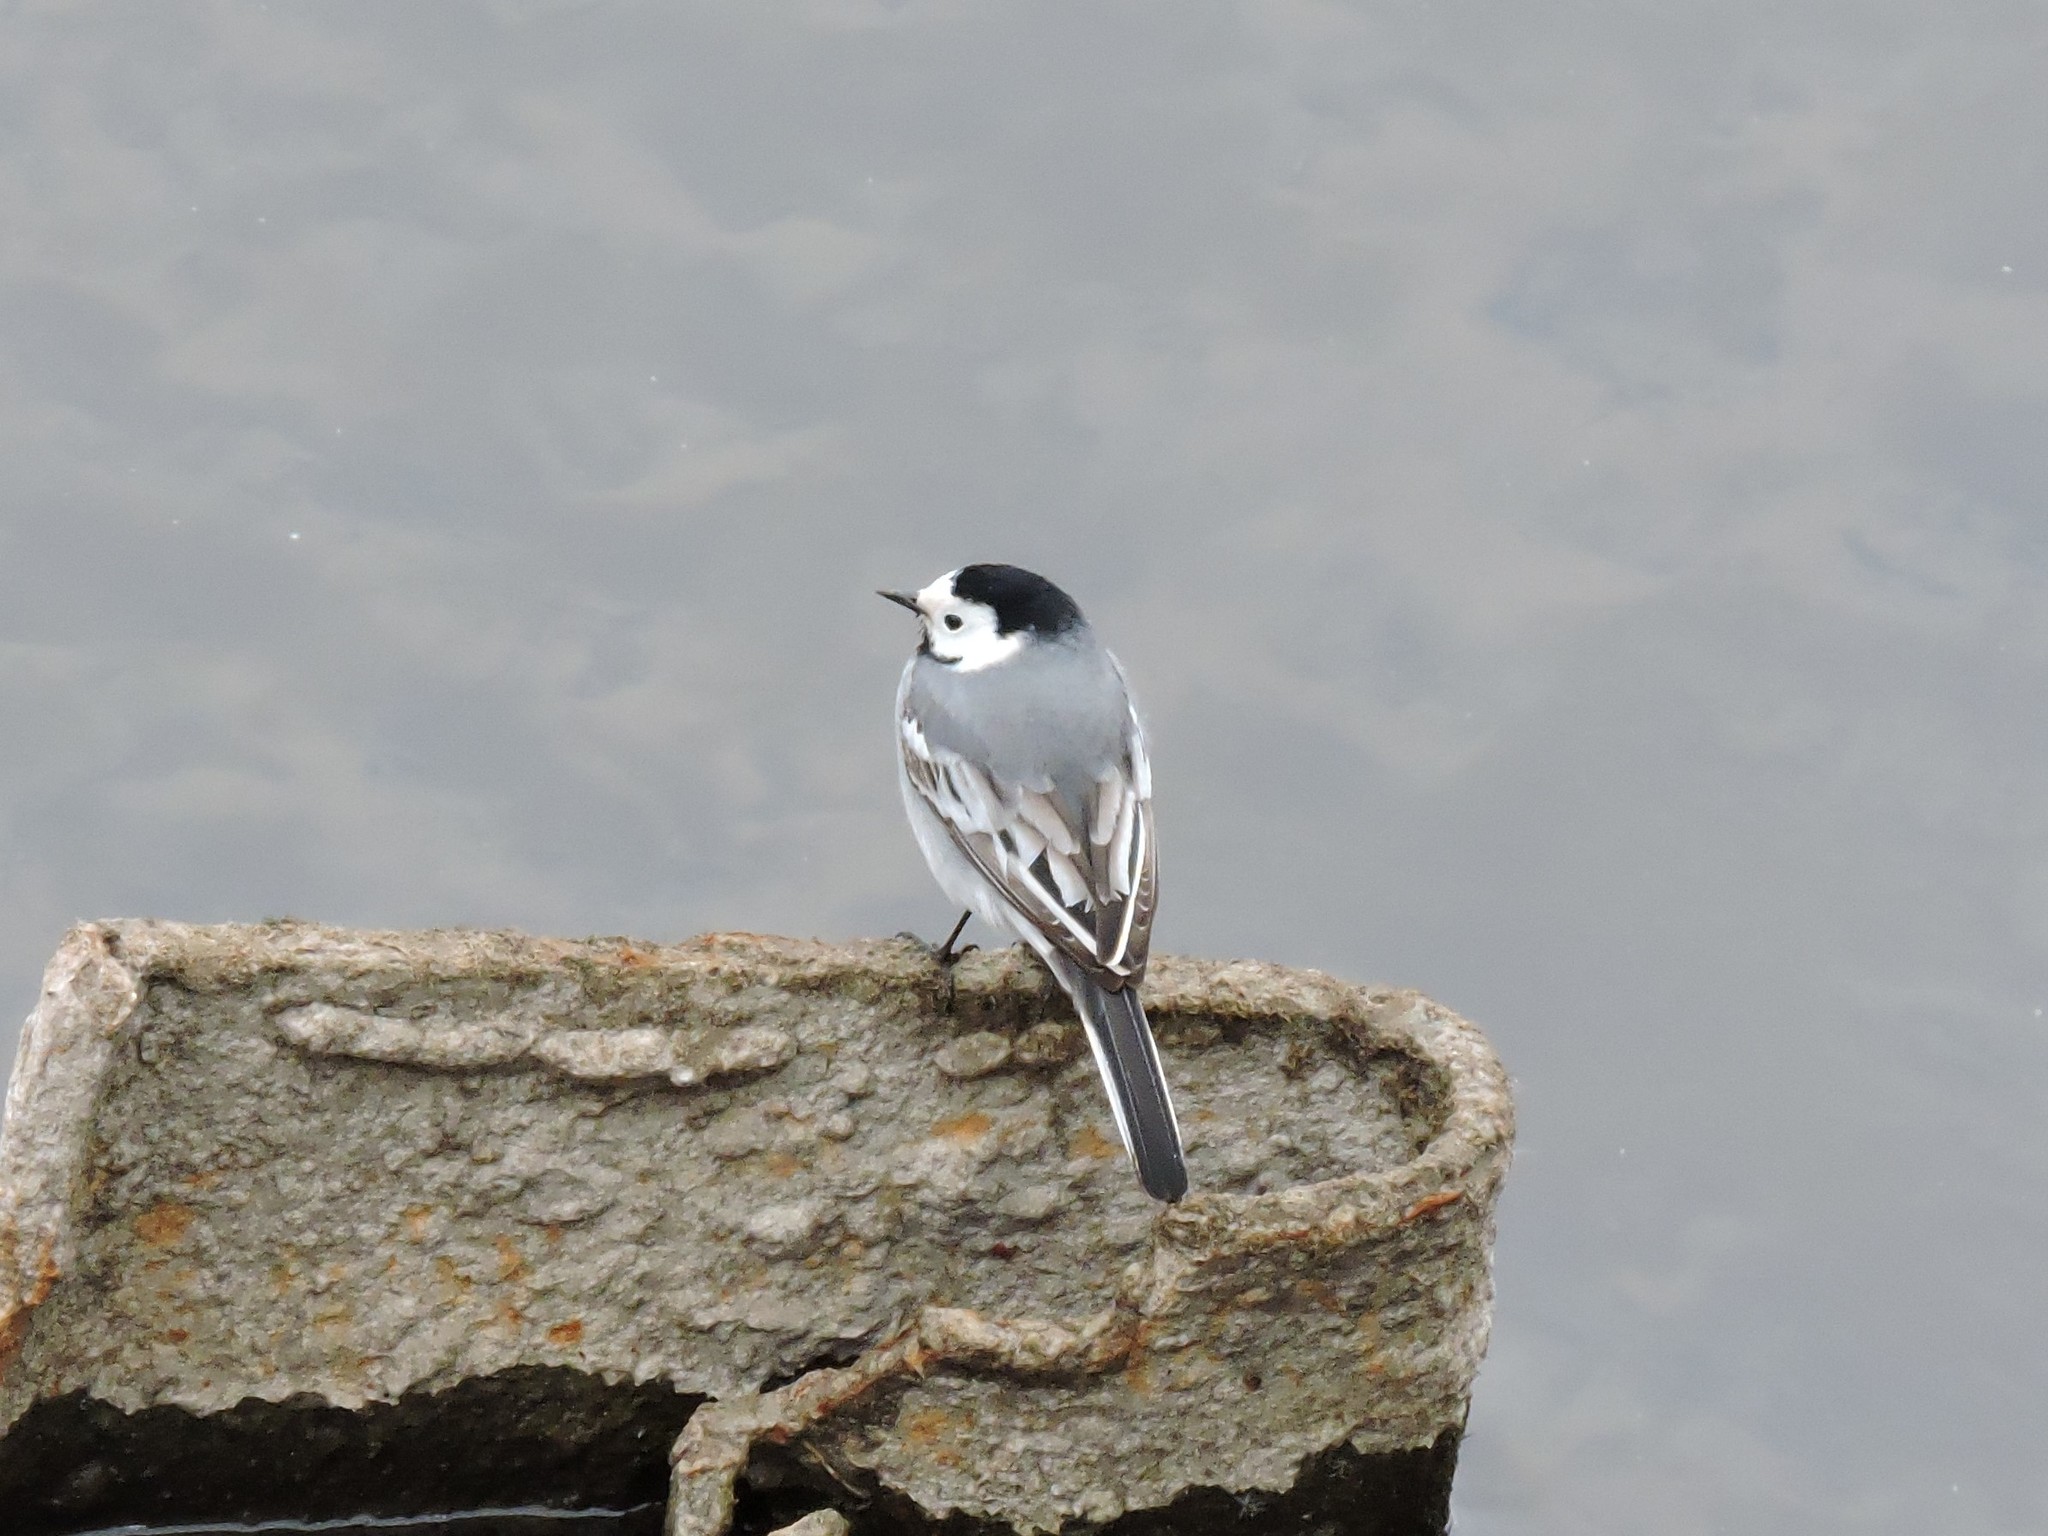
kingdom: Animalia
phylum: Chordata
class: Aves
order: Passeriformes
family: Motacillidae
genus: Motacilla
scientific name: Motacilla alba
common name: White wagtail
